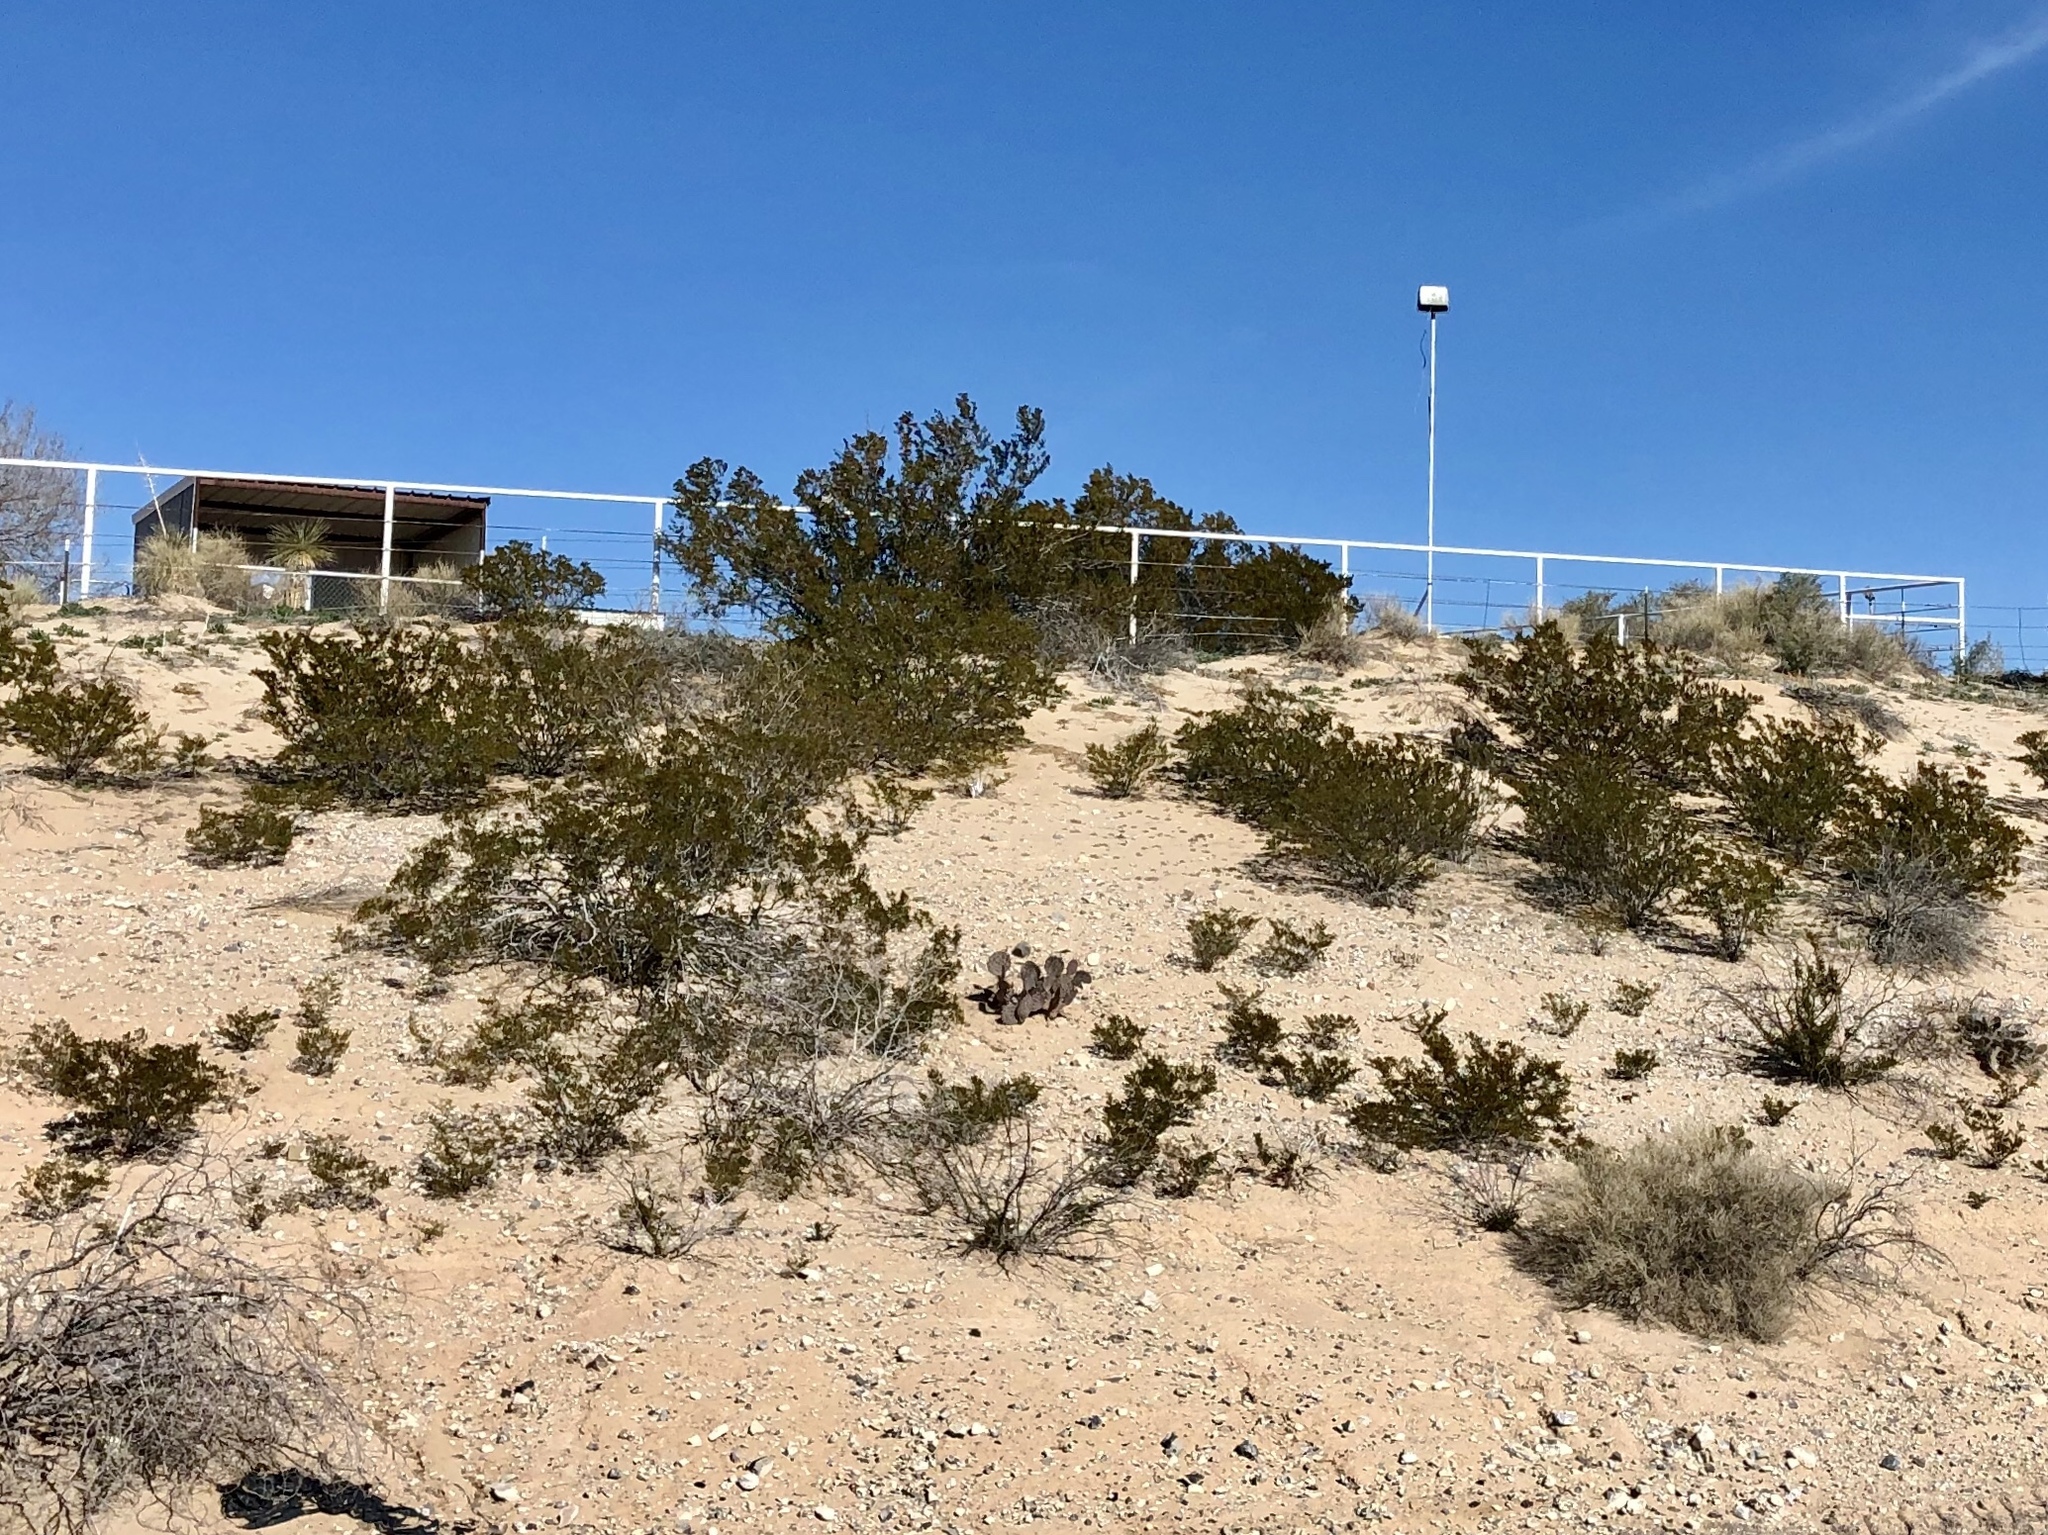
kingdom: Plantae
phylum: Tracheophyta
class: Magnoliopsida
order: Zygophyllales
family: Zygophyllaceae
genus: Larrea
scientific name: Larrea tridentata
